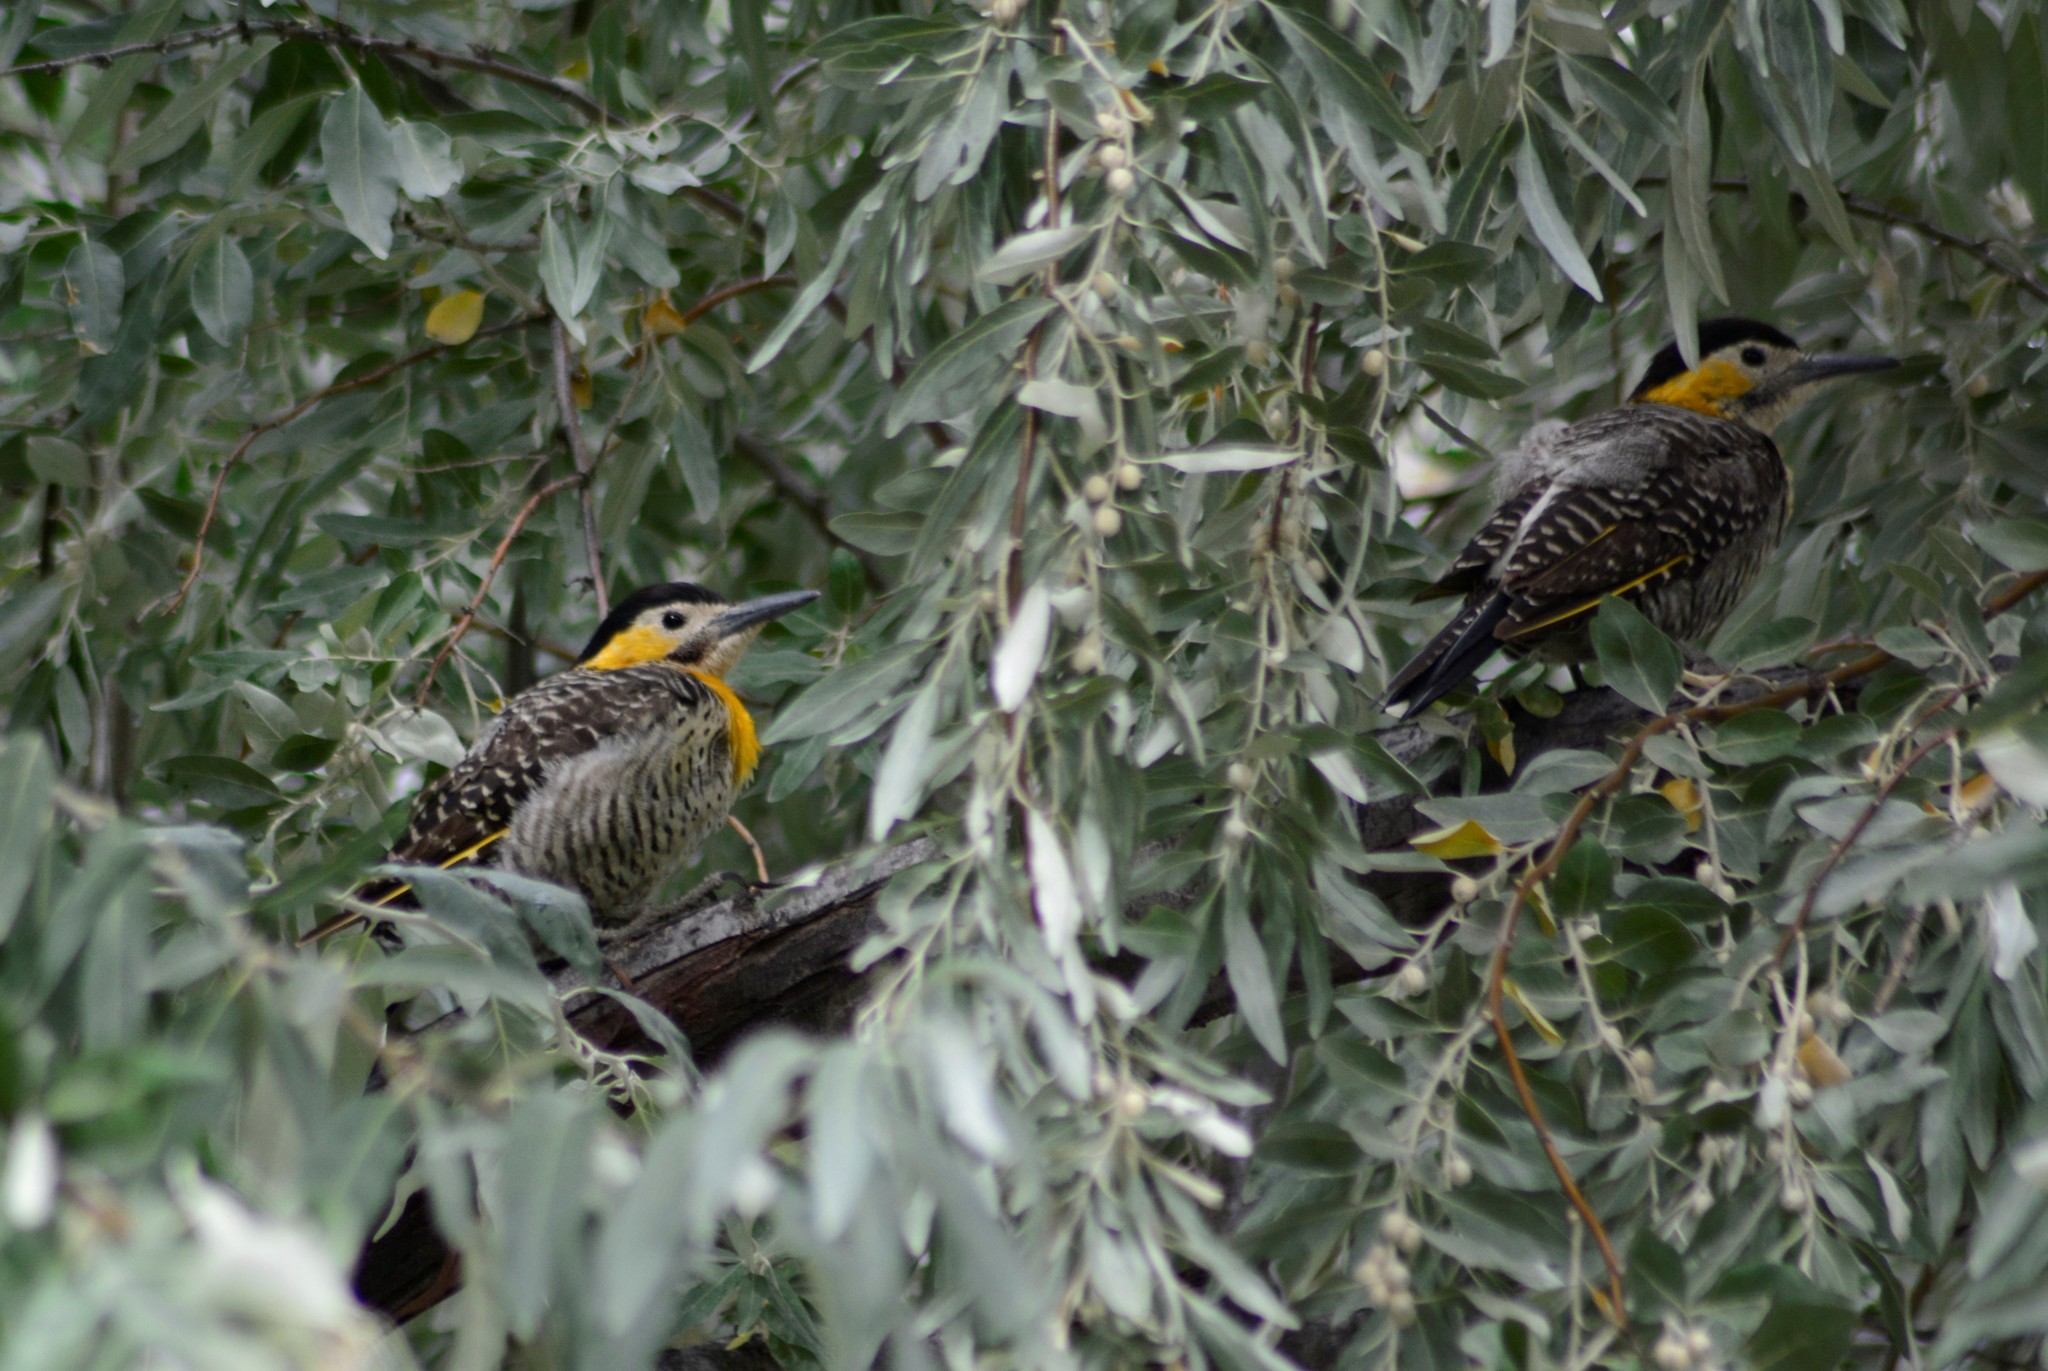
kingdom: Animalia
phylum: Chordata
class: Aves
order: Piciformes
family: Picidae
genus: Colaptes
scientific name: Colaptes campestris
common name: Campo flicker
